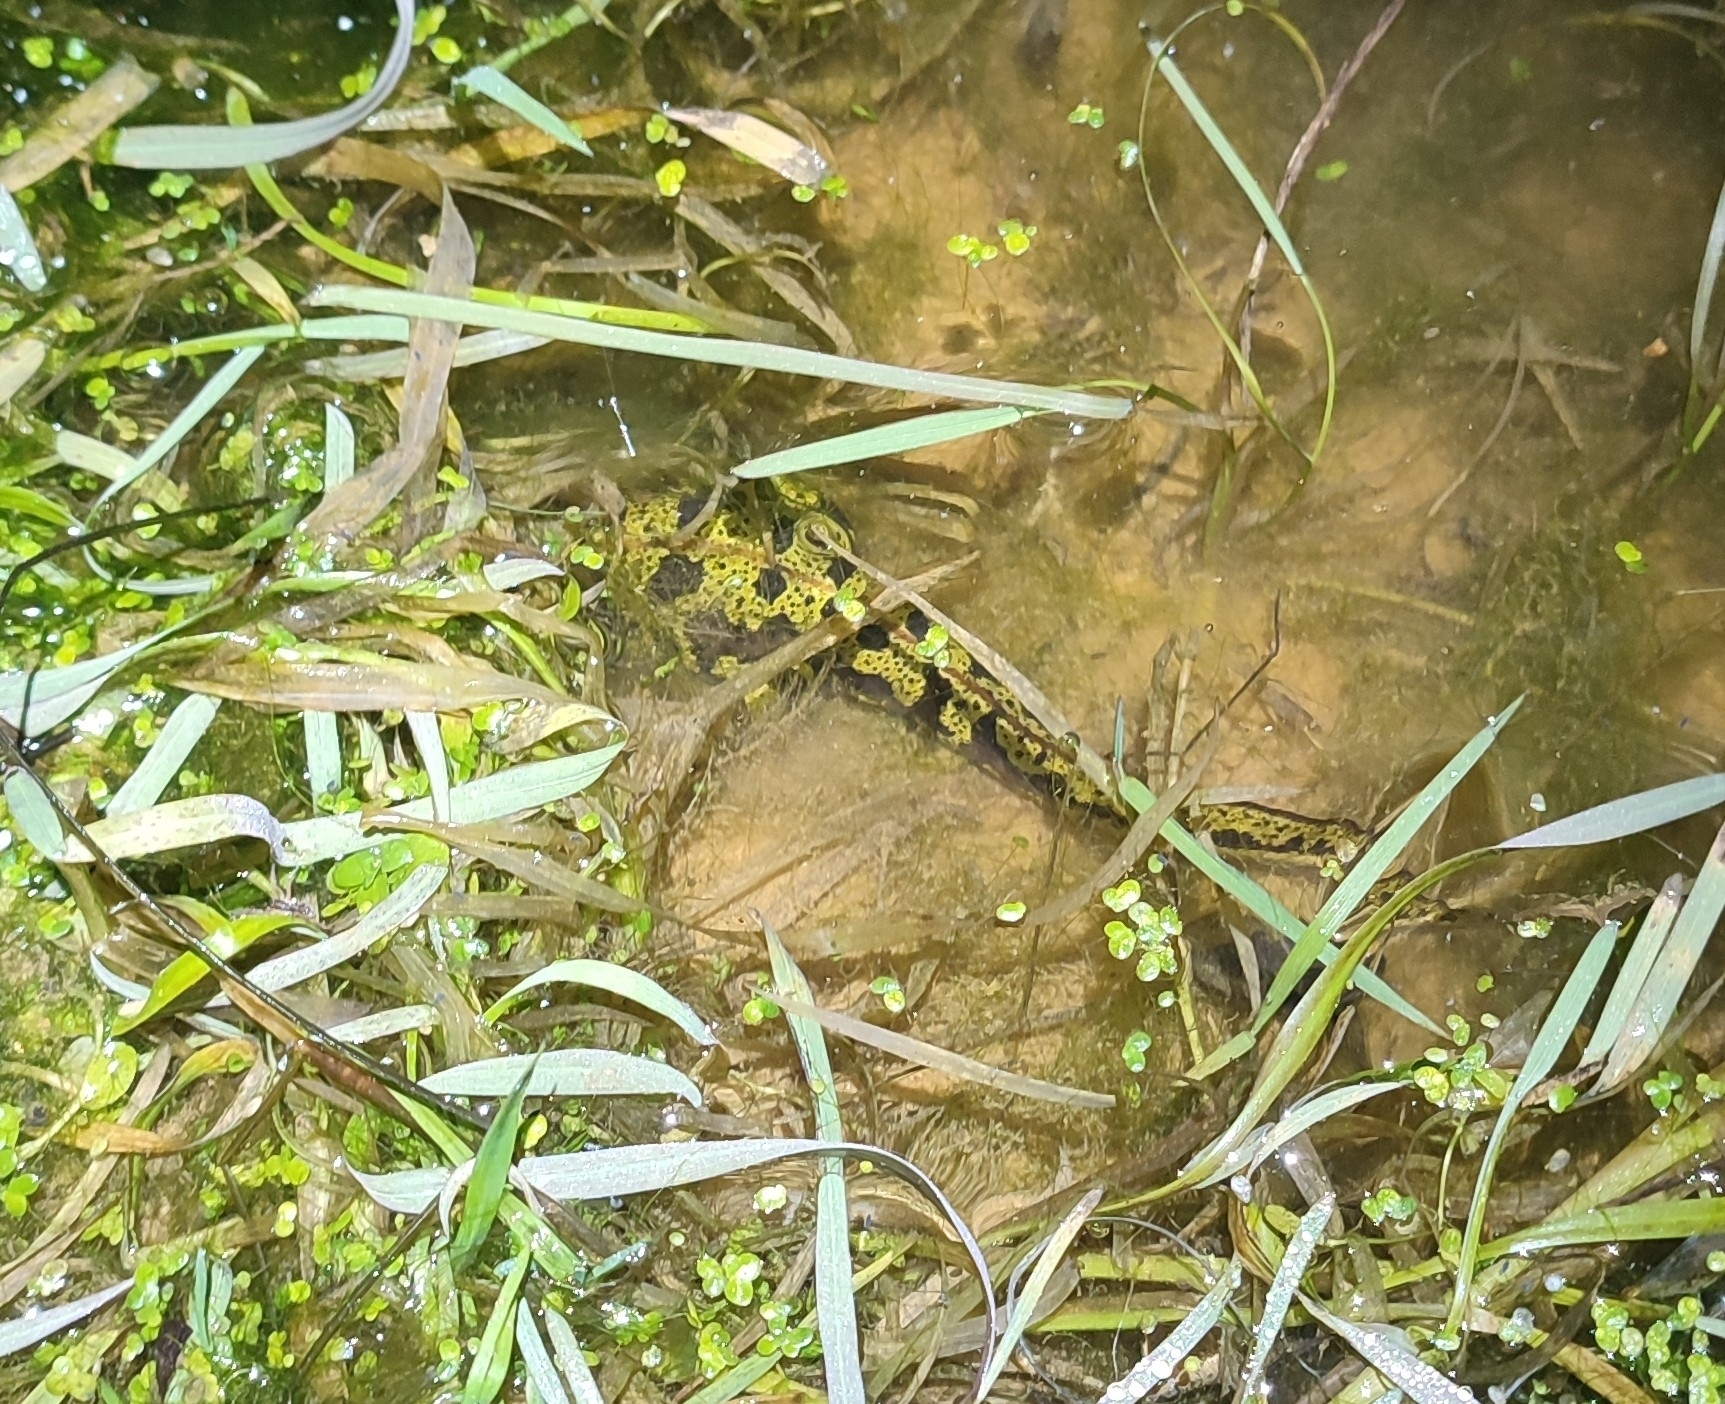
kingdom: Animalia
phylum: Chordata
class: Amphibia
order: Caudata
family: Salamandridae
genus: Triturus
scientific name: Triturus marmoratus
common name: Marbled newt
